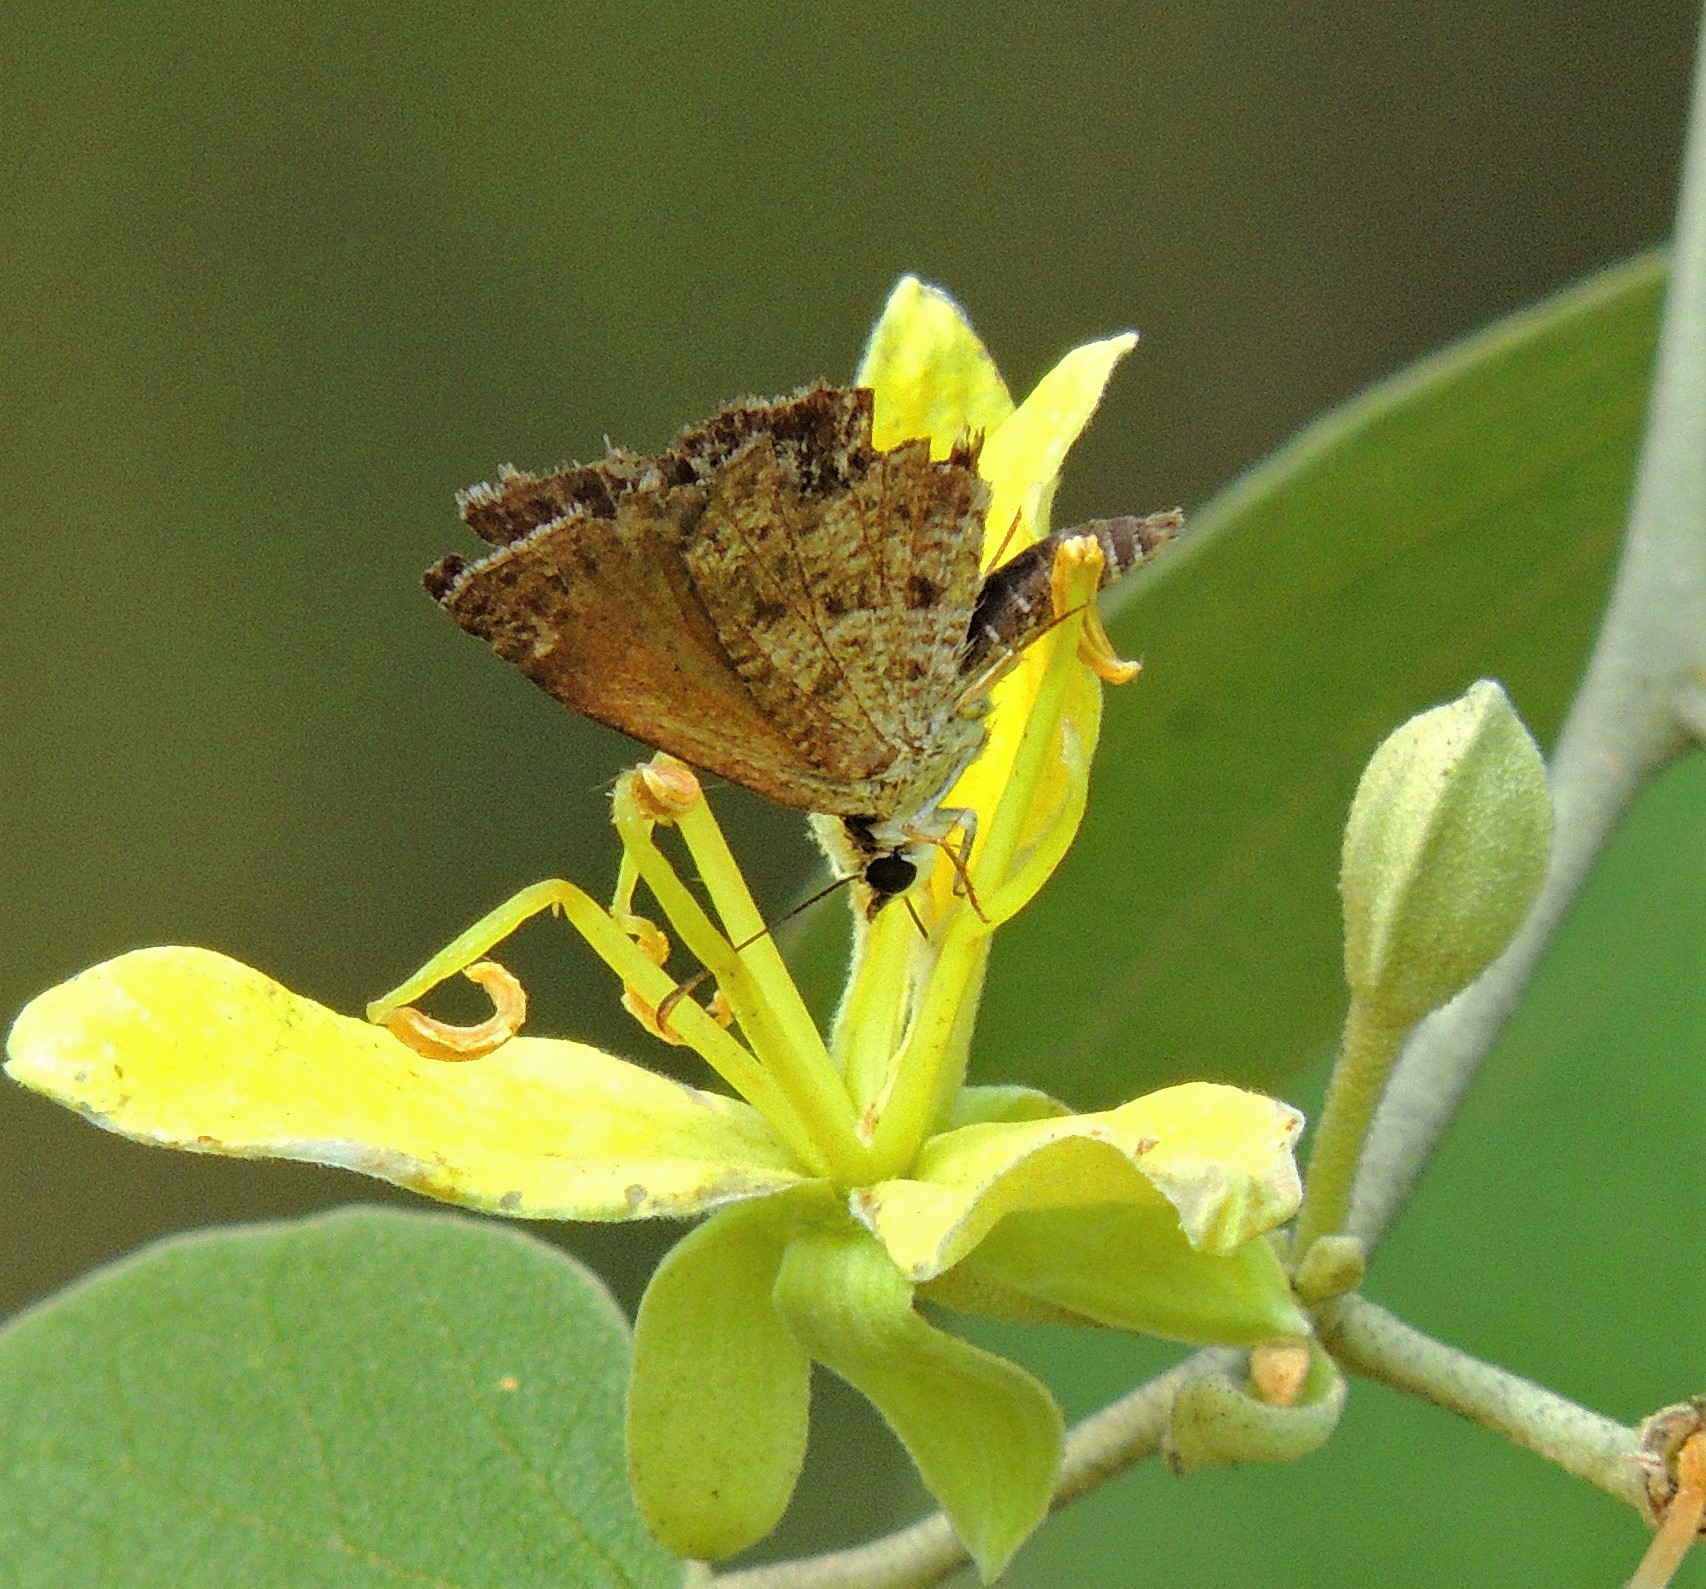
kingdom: Animalia
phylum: Arthropoda
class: Insecta
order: Lepidoptera
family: Hesperiidae
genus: Zopyrion
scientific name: Zopyrion evenor
